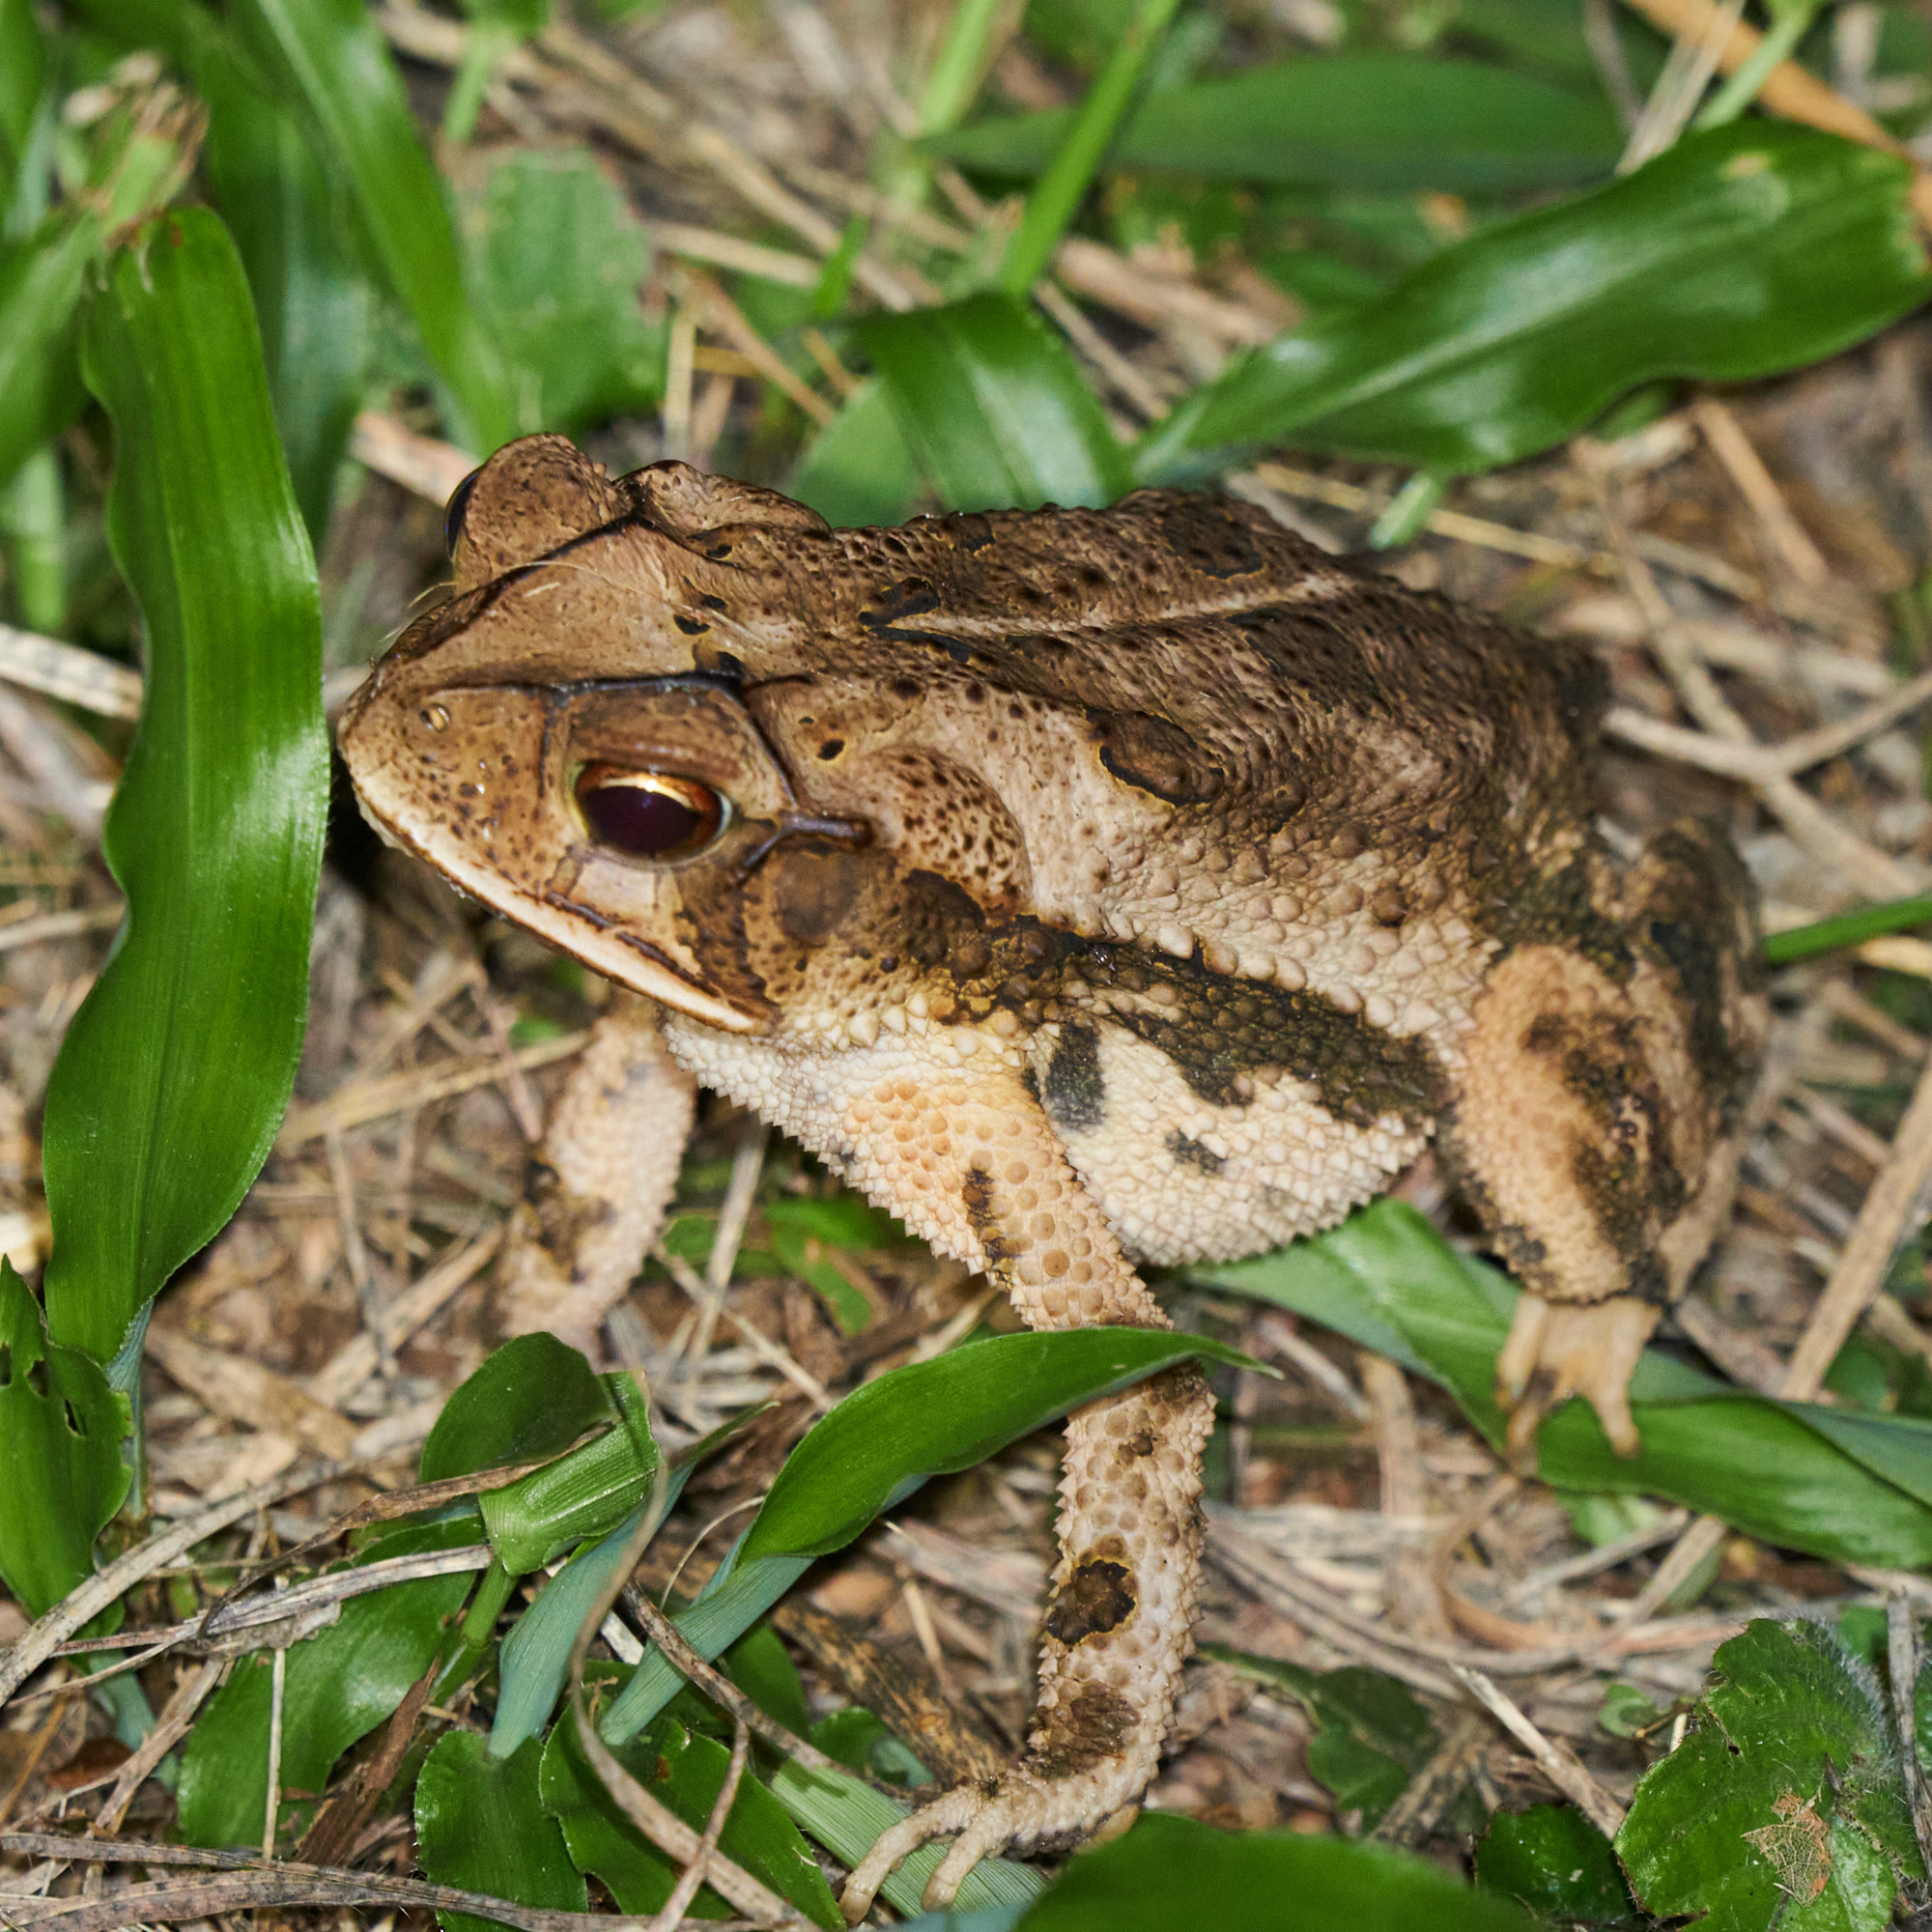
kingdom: Animalia
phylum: Chordata
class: Amphibia
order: Anura
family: Bufonidae
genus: Incilius
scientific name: Incilius valliceps
